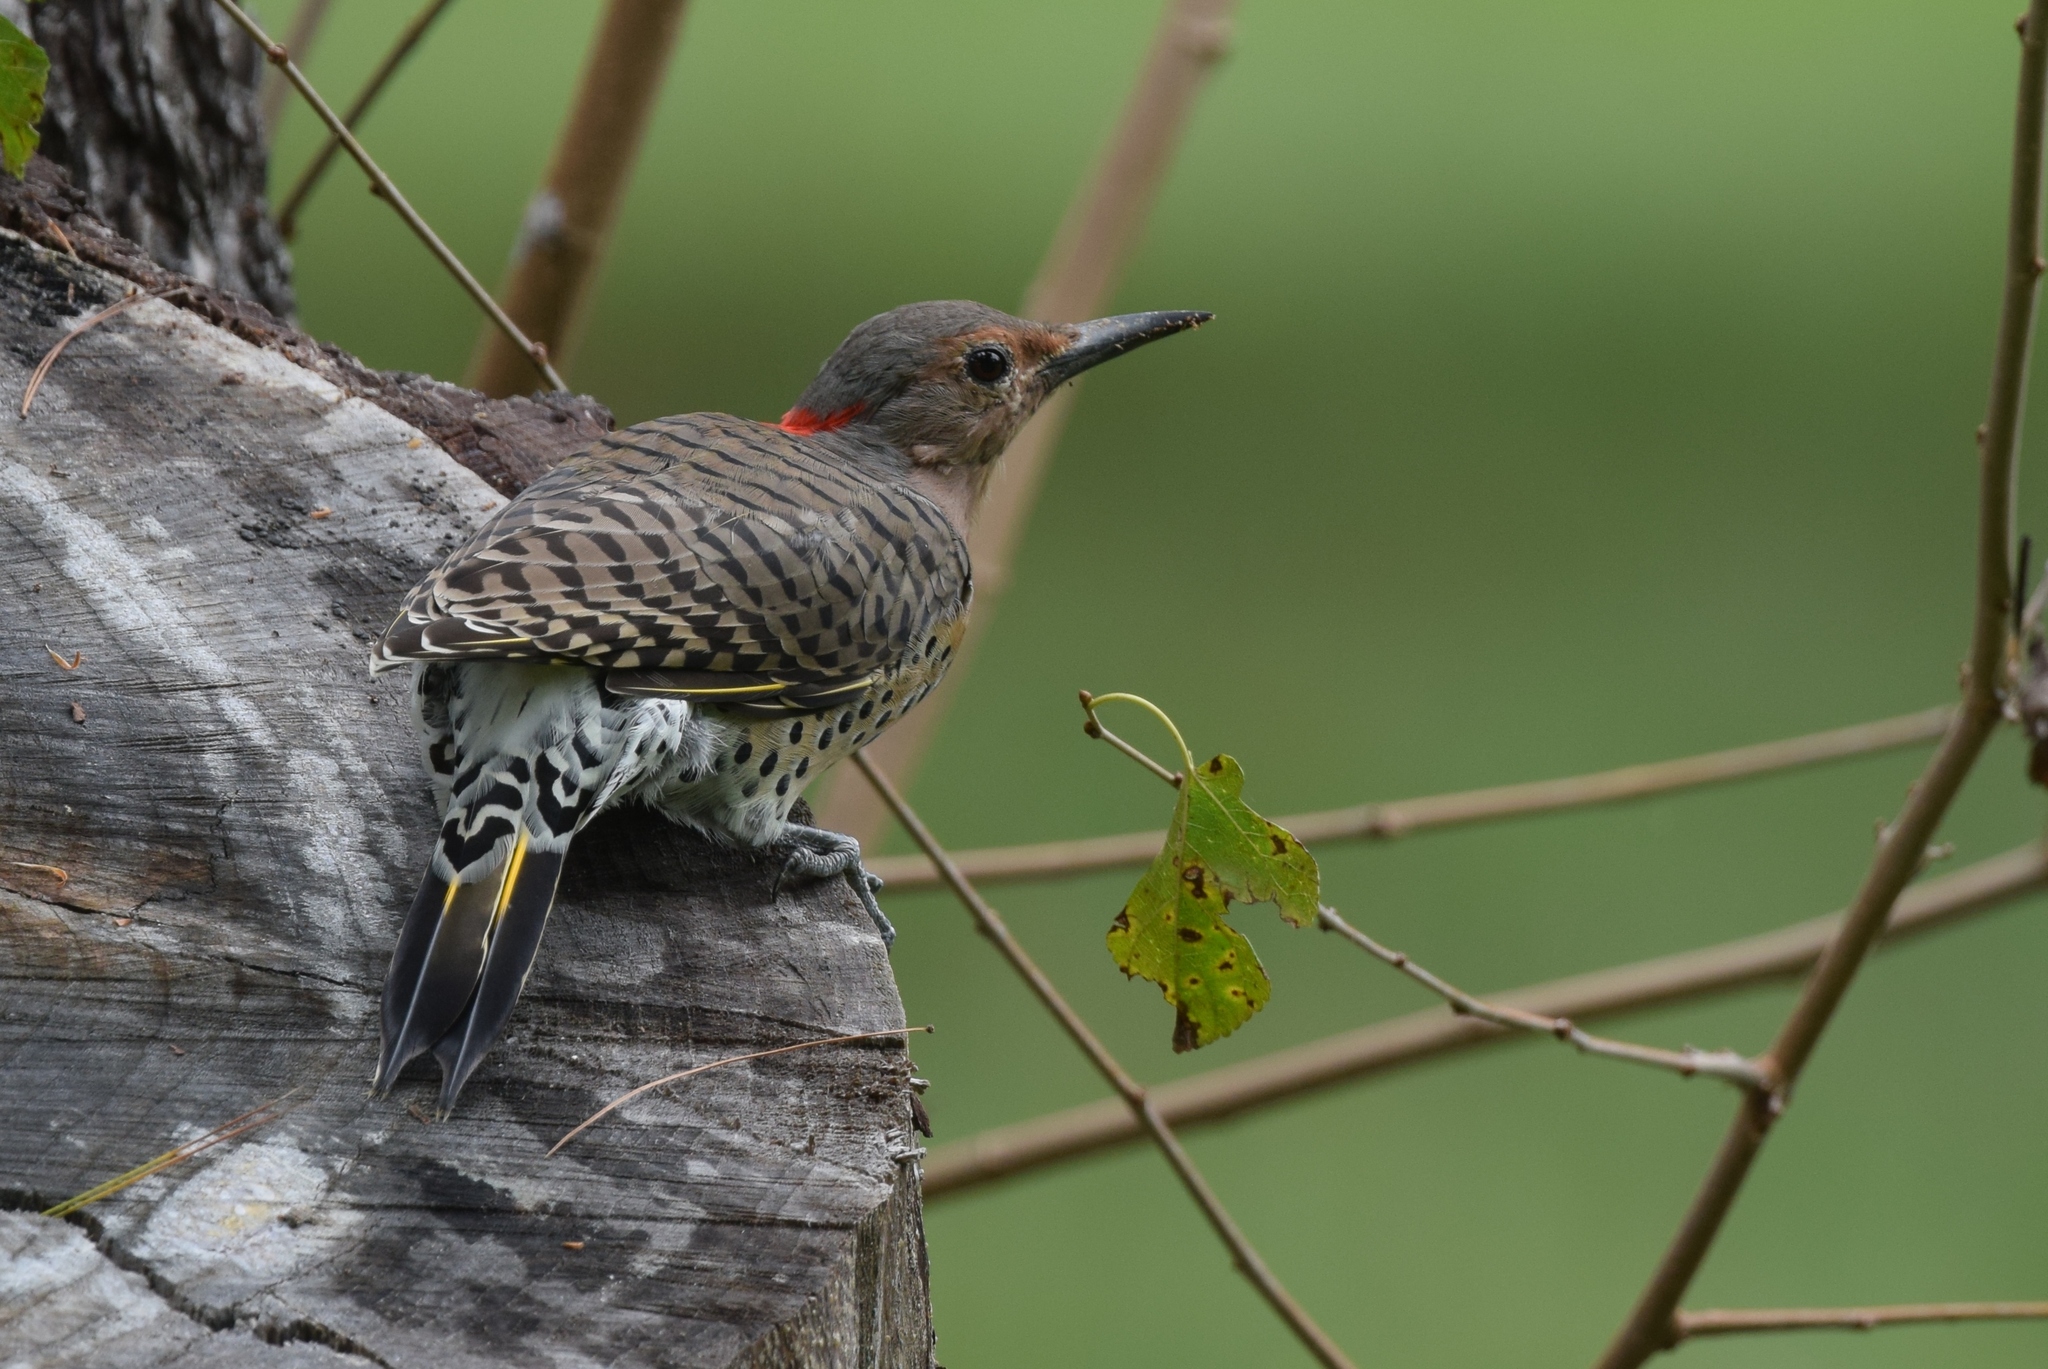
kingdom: Animalia
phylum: Chordata
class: Aves
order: Piciformes
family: Picidae
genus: Colaptes
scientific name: Colaptes auratus
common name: Northern flicker
